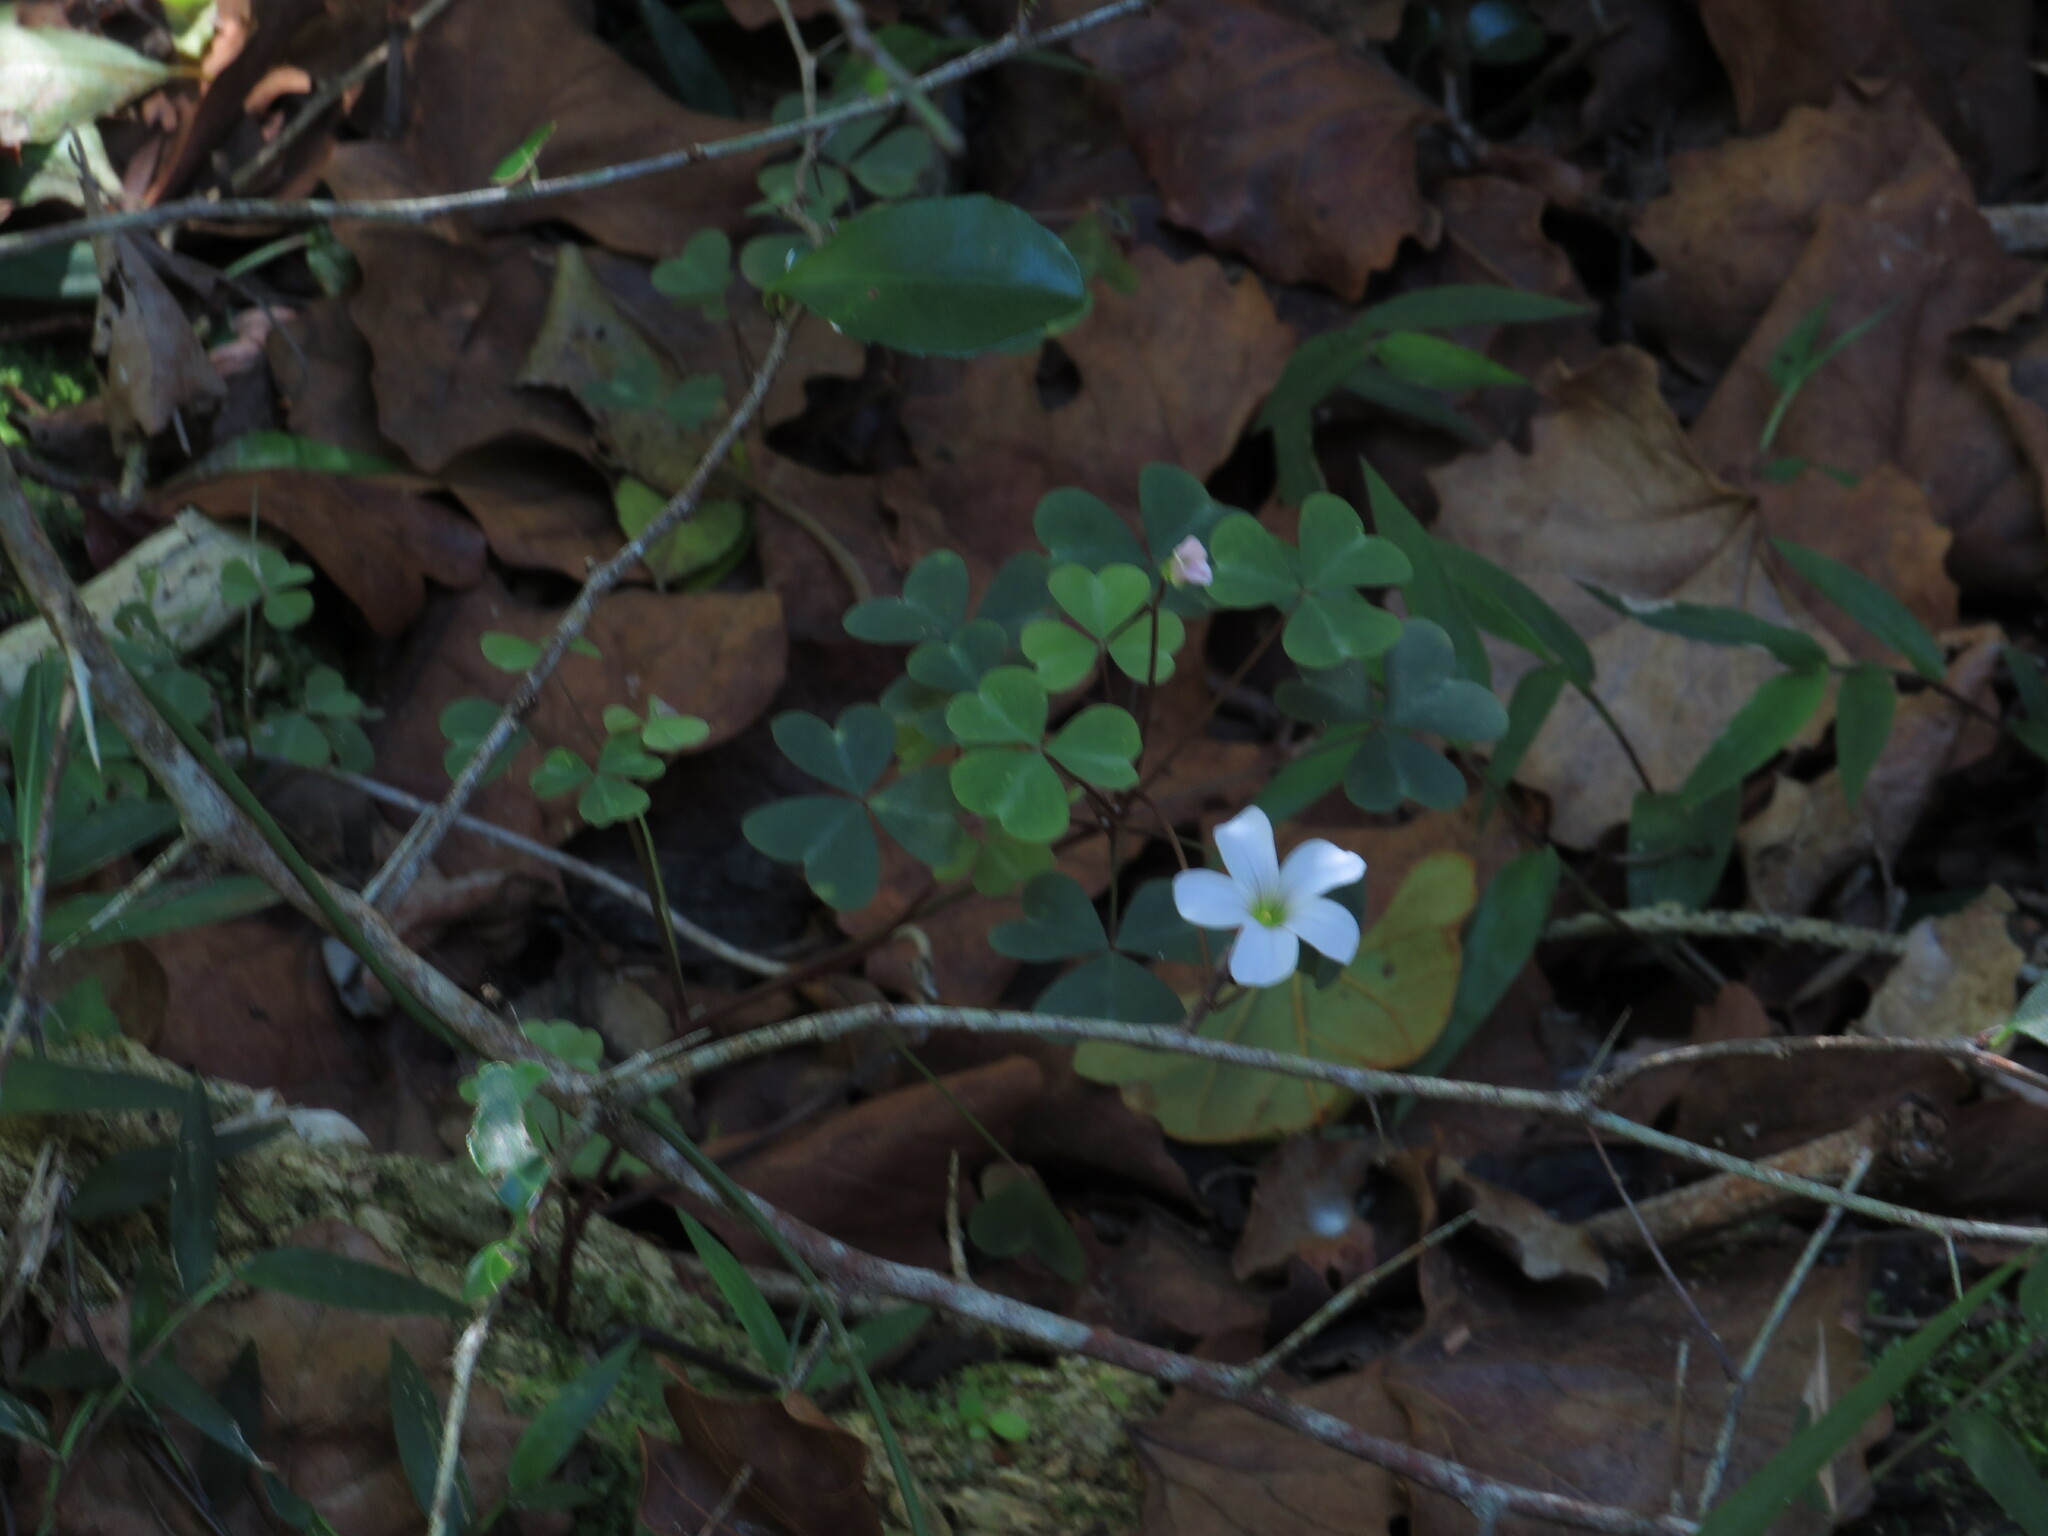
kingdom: Plantae
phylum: Tracheophyta
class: Magnoliopsida
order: Oxalidales
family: Oxalidaceae
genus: Oxalis
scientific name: Oxalis incarnata
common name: Pale pink-sorrel
